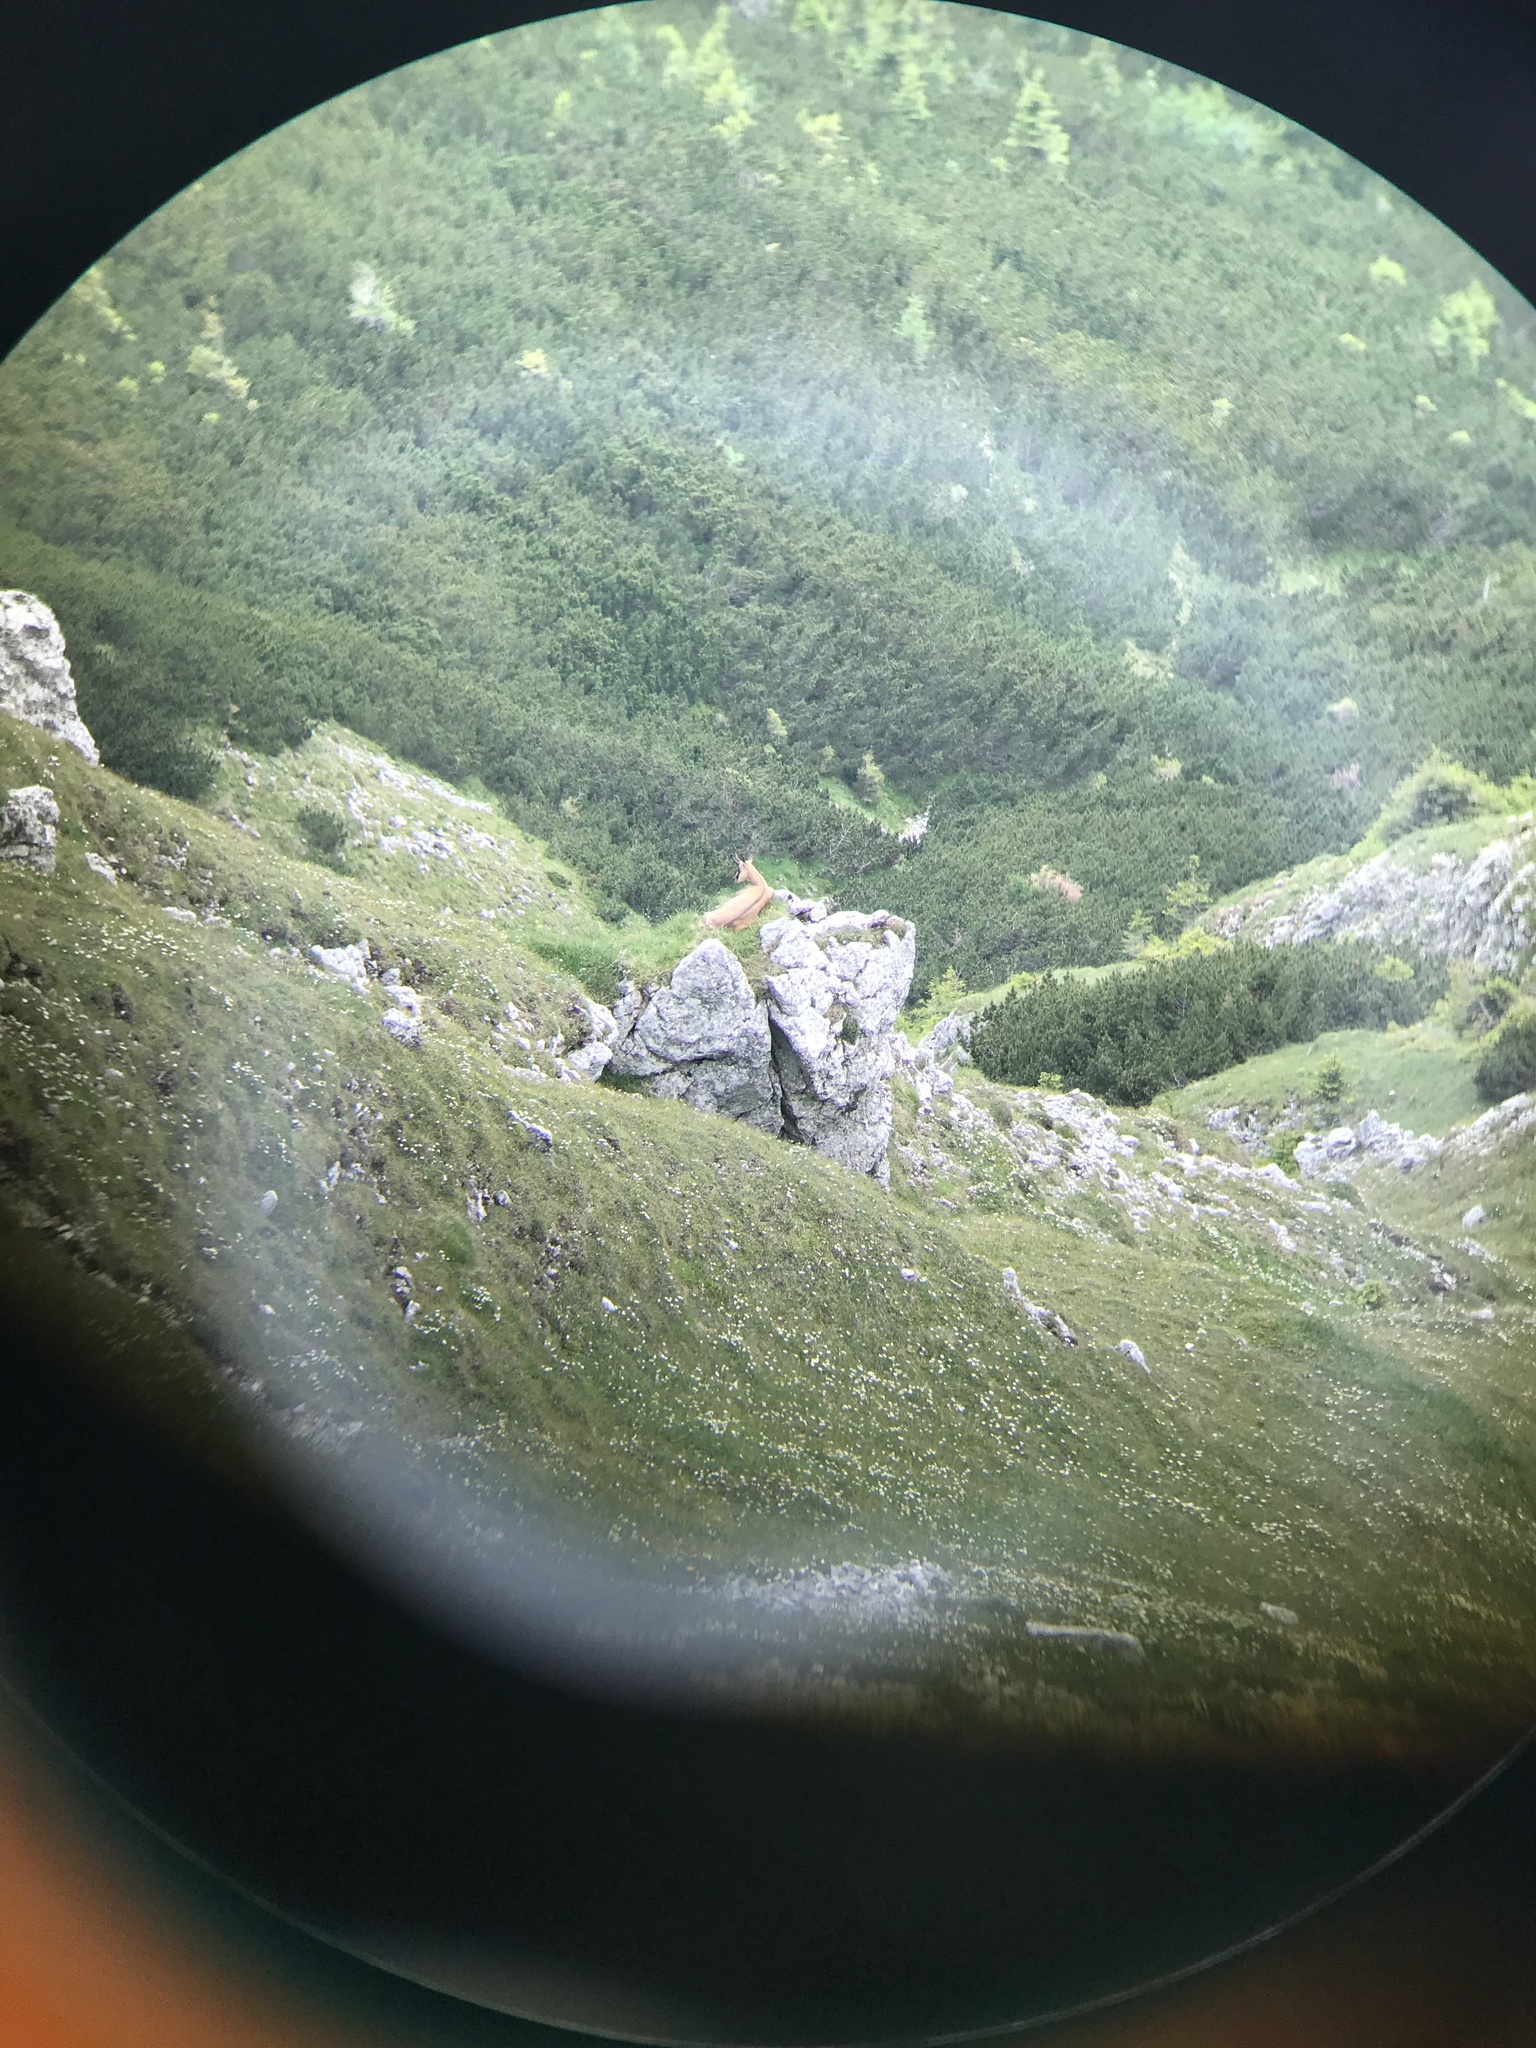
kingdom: Animalia
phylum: Chordata
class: Mammalia
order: Artiodactyla
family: Bovidae
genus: Rupicapra
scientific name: Rupicapra rupicapra
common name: Chamois
